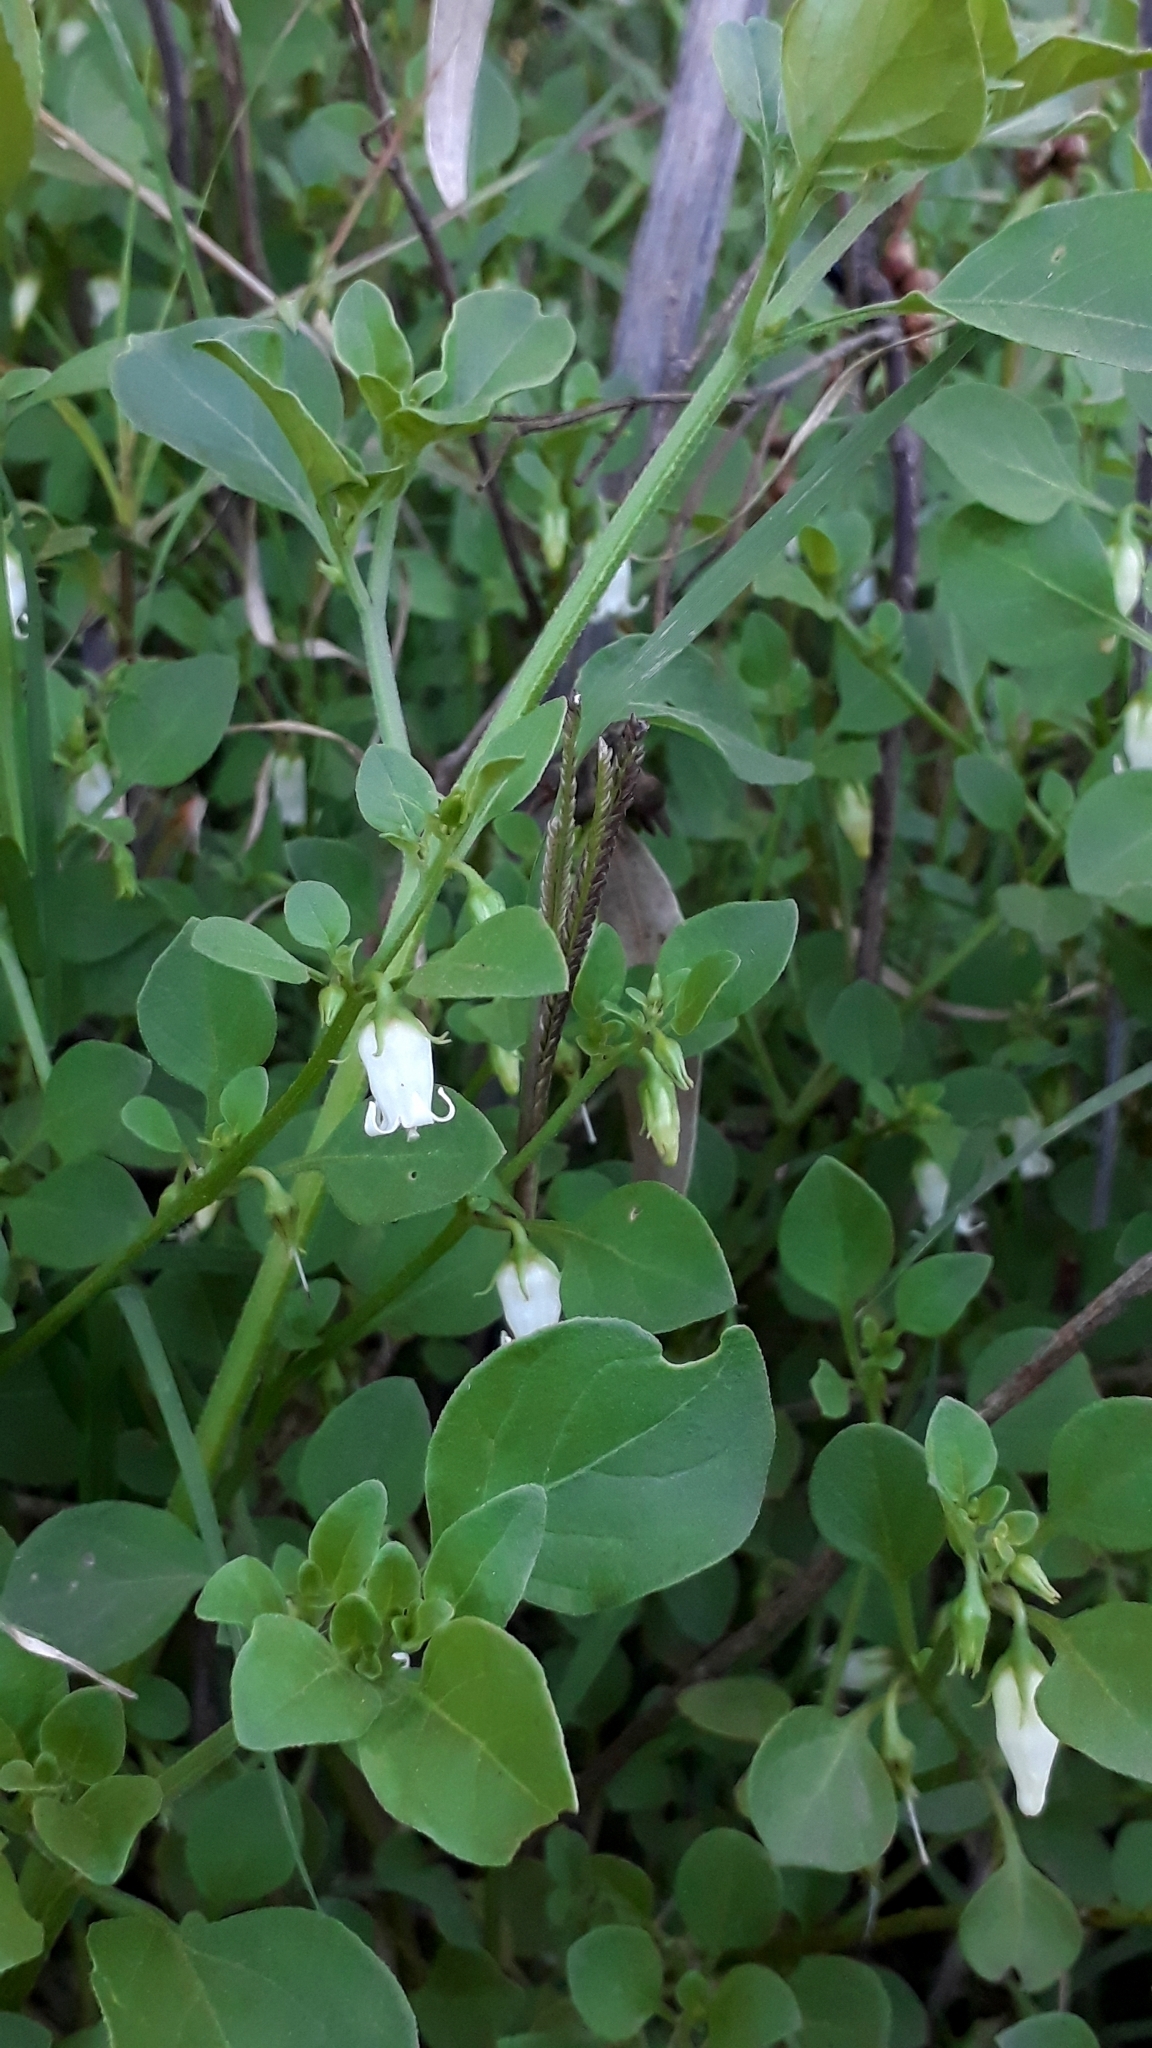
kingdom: Plantae
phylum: Tracheophyta
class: Magnoliopsida
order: Solanales
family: Solanaceae
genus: Salpichroa
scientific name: Salpichroa origanifolia
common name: Lily-of-the-valley-vine
